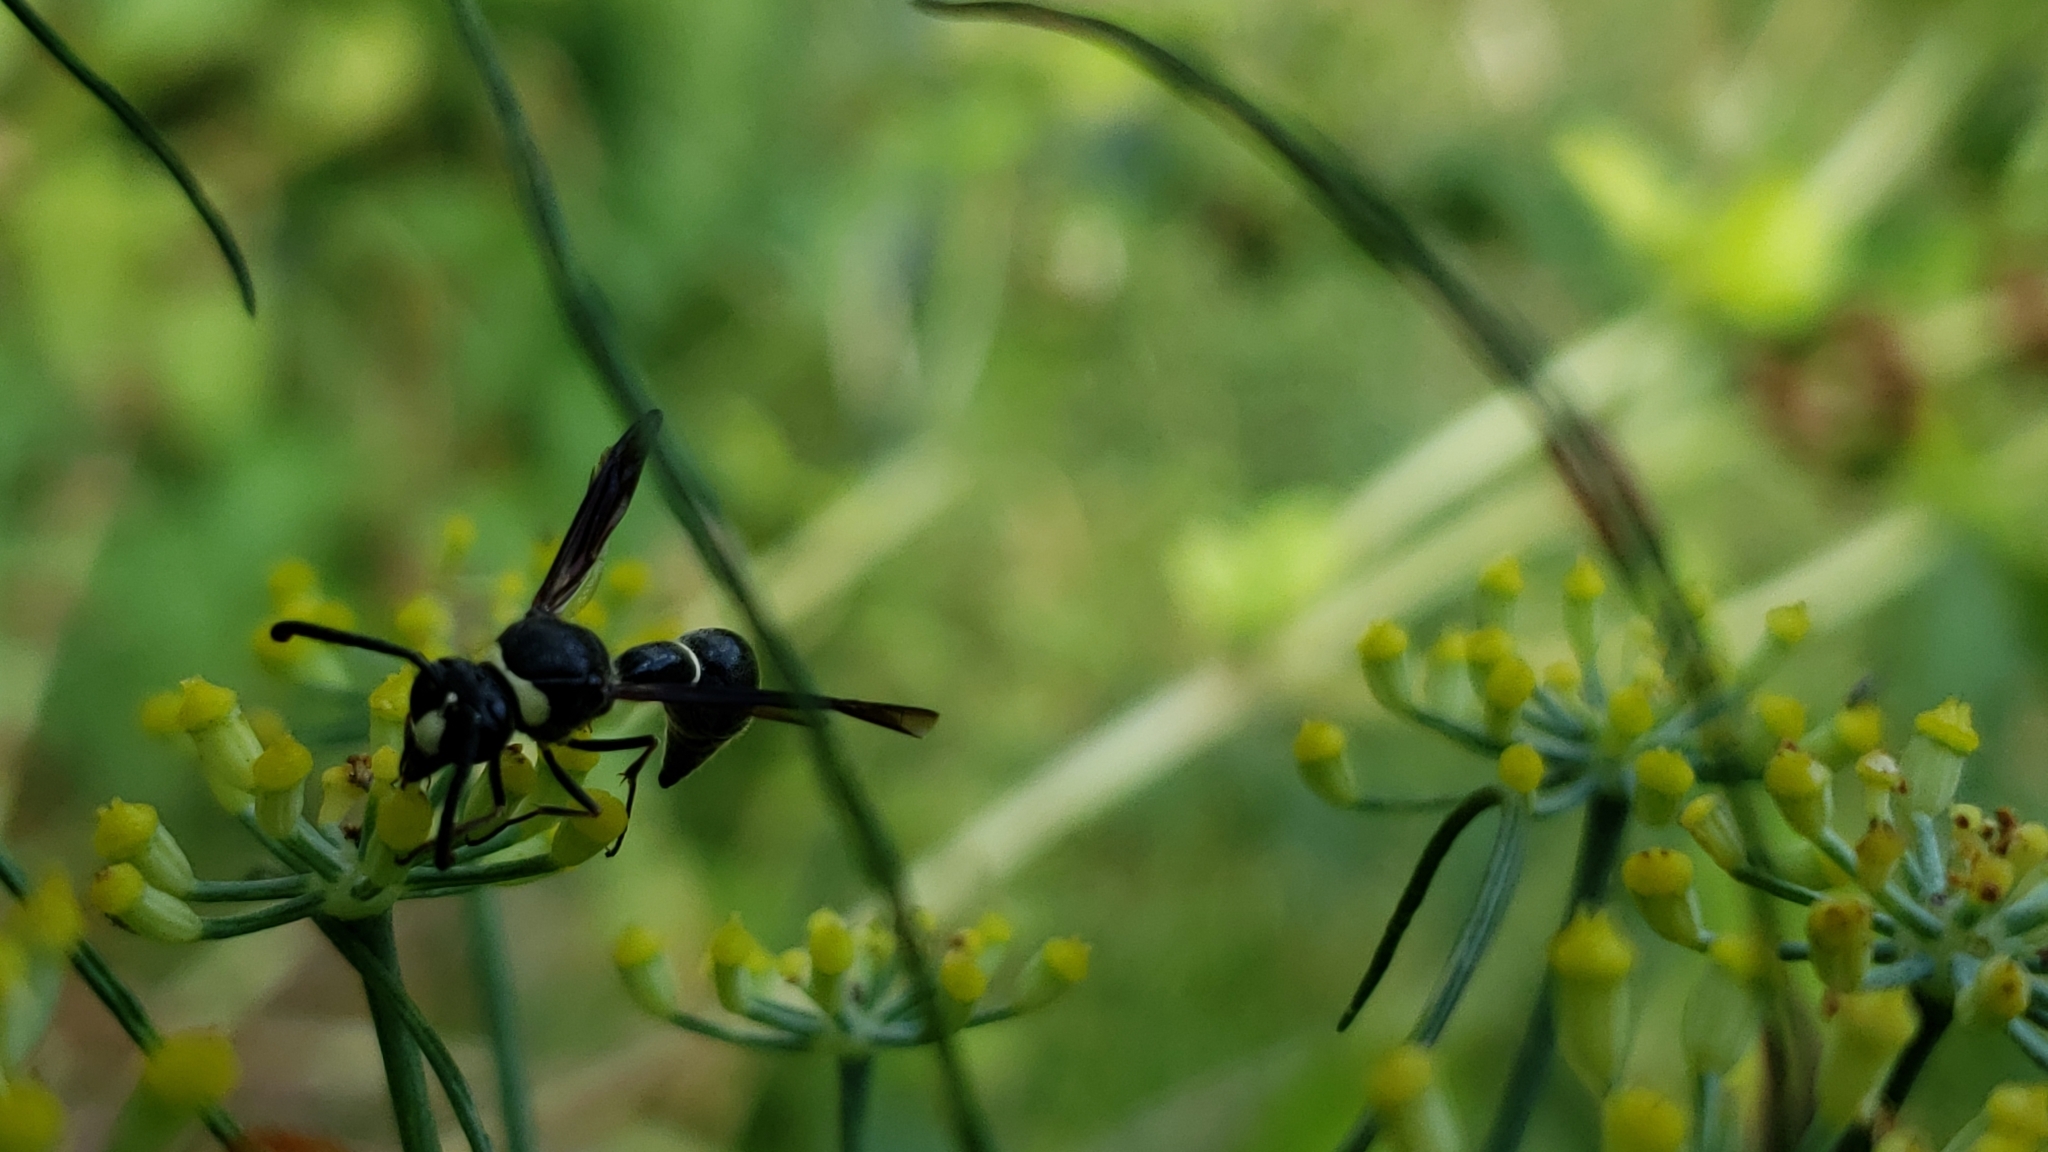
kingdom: Animalia
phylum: Arthropoda
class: Insecta
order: Hymenoptera
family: Vespidae
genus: Eumenes
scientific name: Eumenes fraternus
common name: Fraternal potter wasp
